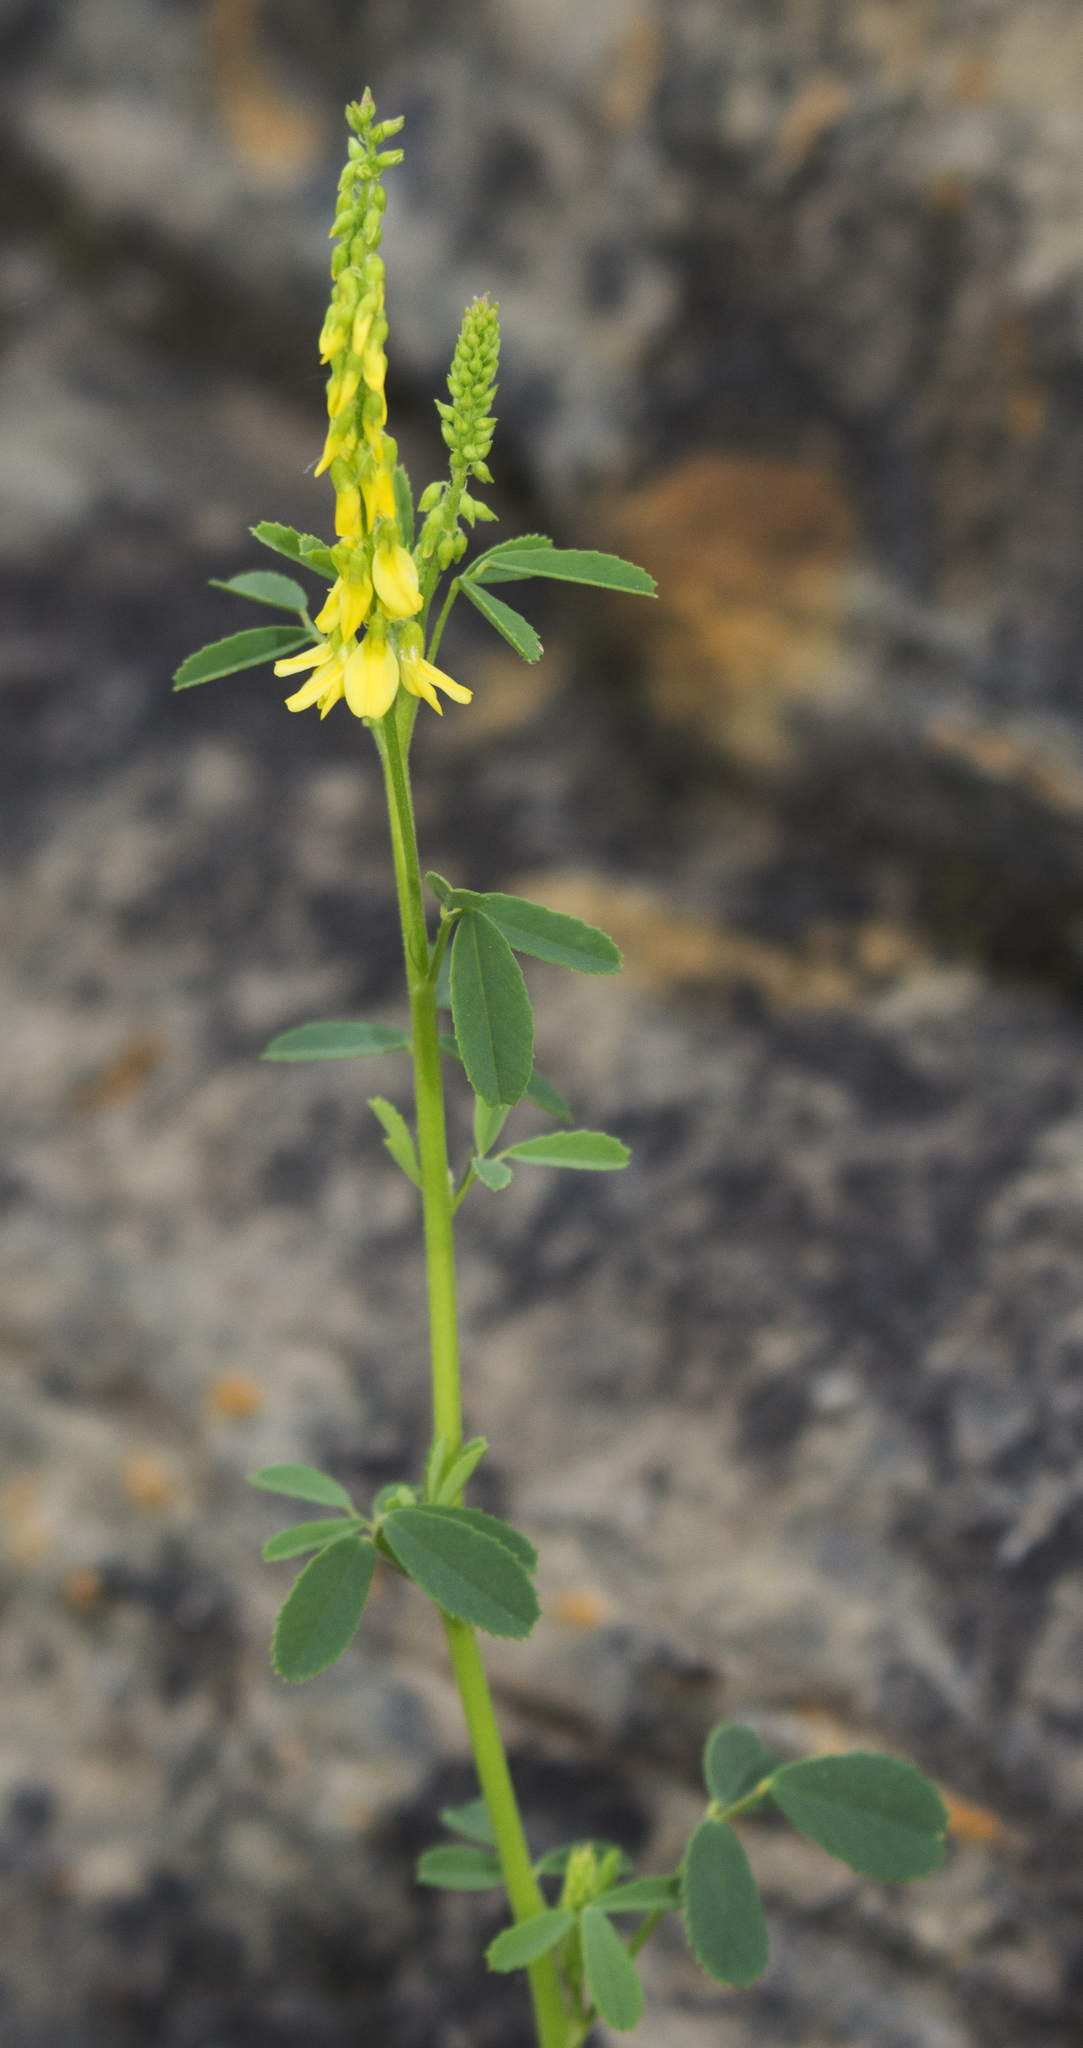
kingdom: Plantae
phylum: Tracheophyta
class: Magnoliopsida
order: Fabales
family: Fabaceae
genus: Melilotus
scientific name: Melilotus officinalis
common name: Sweetclover
